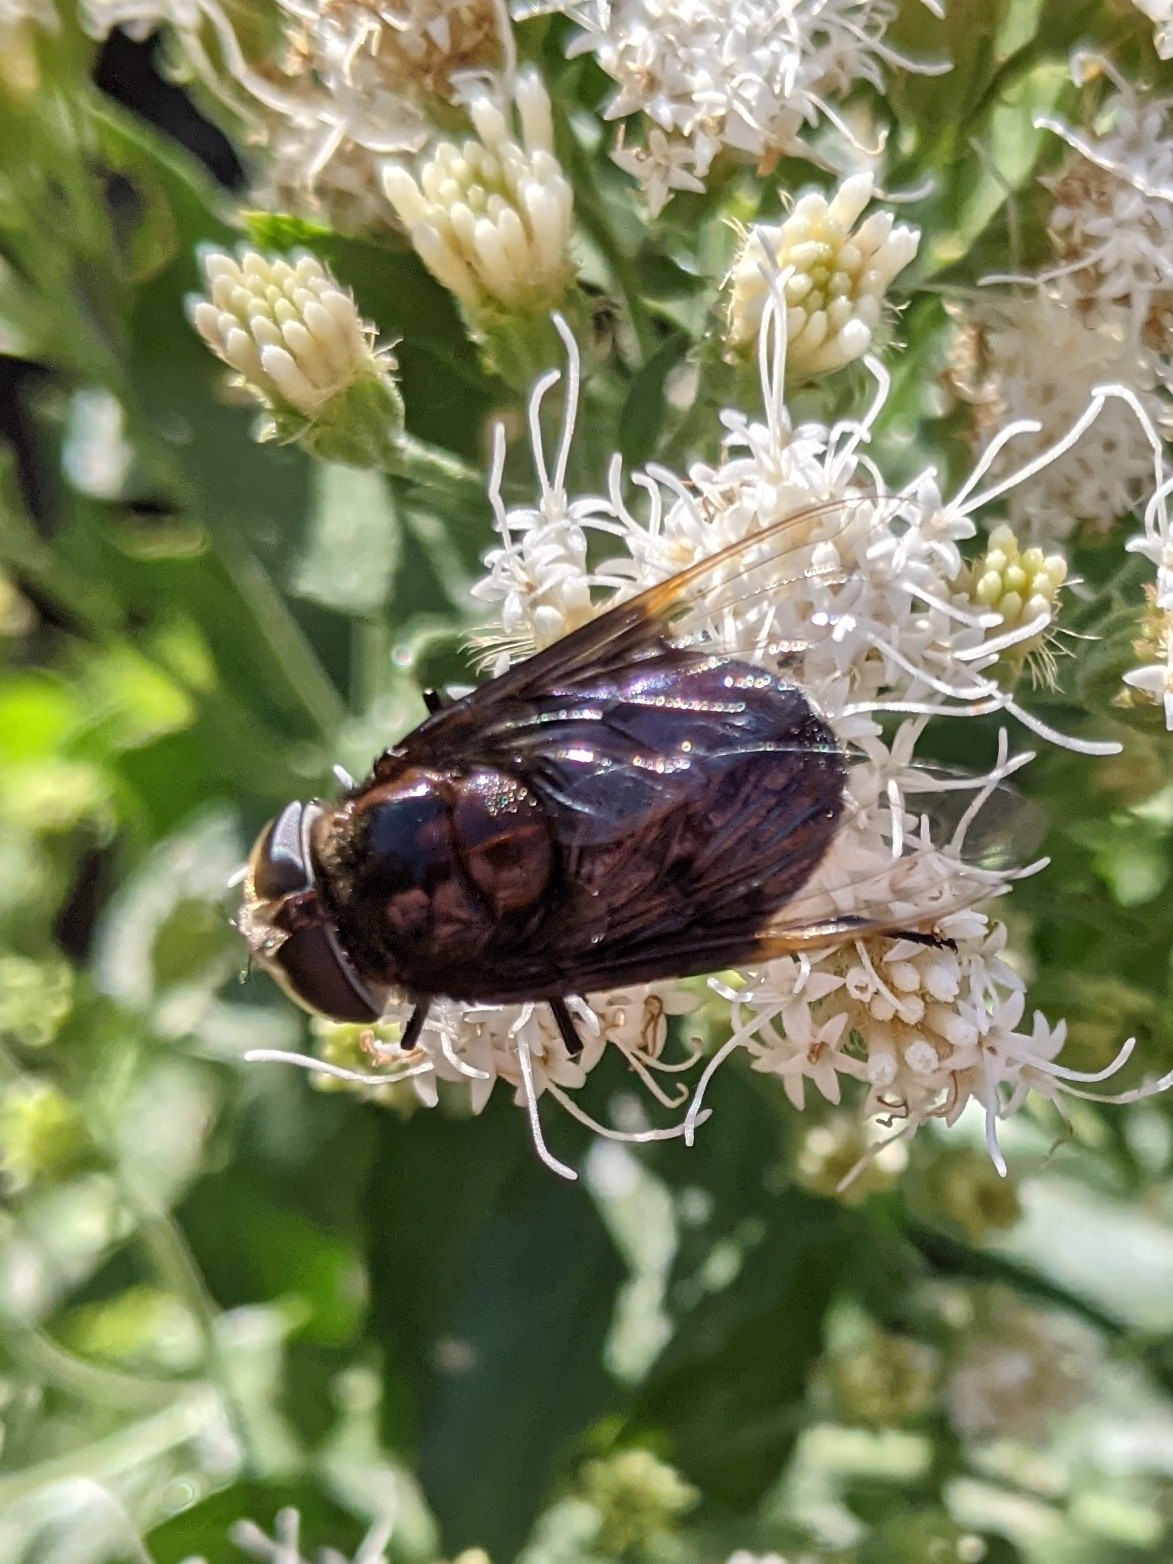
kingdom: Animalia
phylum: Arthropoda
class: Insecta
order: Diptera
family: Syrphidae
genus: Copestylum
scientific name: Copestylum violaceum
